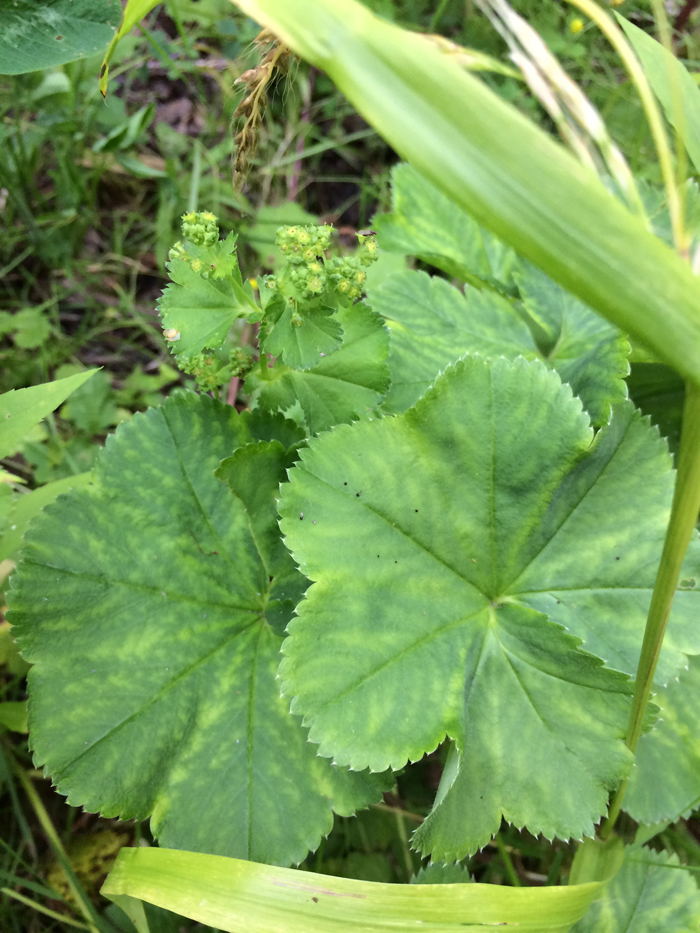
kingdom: Plantae
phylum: Tracheophyta
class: Magnoliopsida
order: Rosales
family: Rosaceae
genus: Alchemilla
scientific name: Alchemilla
